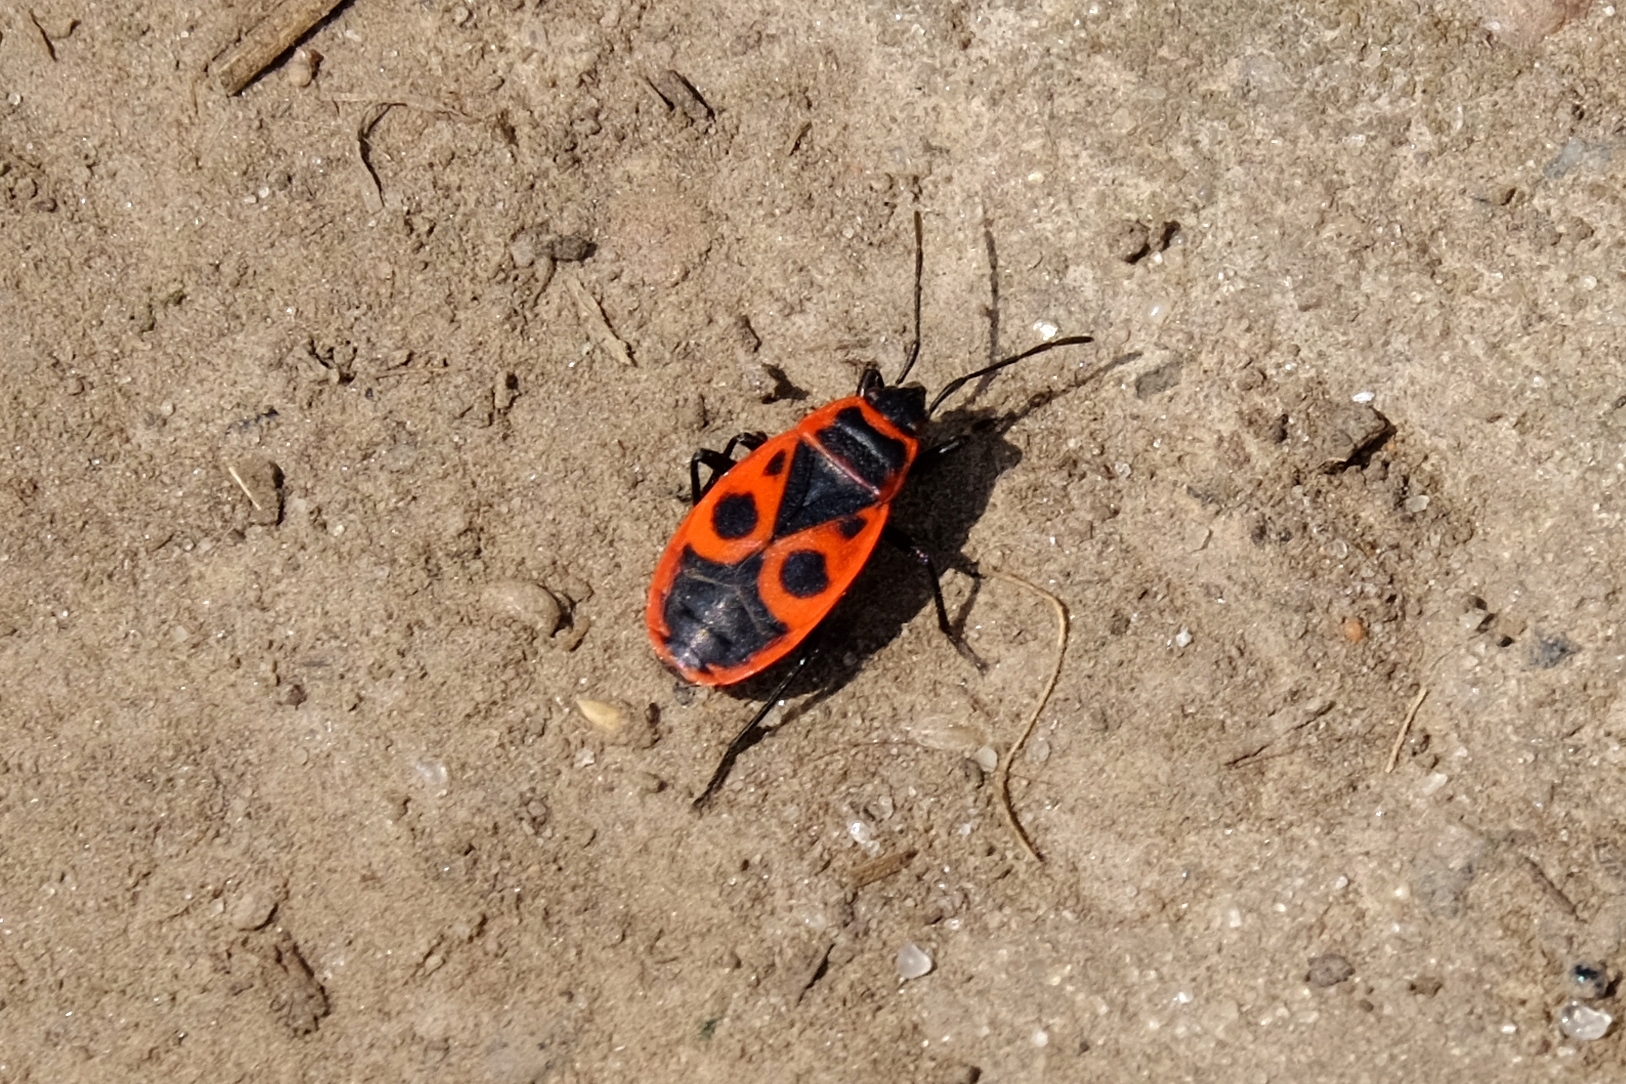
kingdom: Animalia
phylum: Arthropoda
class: Insecta
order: Hemiptera
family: Pyrrhocoridae
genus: Pyrrhocoris
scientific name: Pyrrhocoris apterus
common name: Firebug
